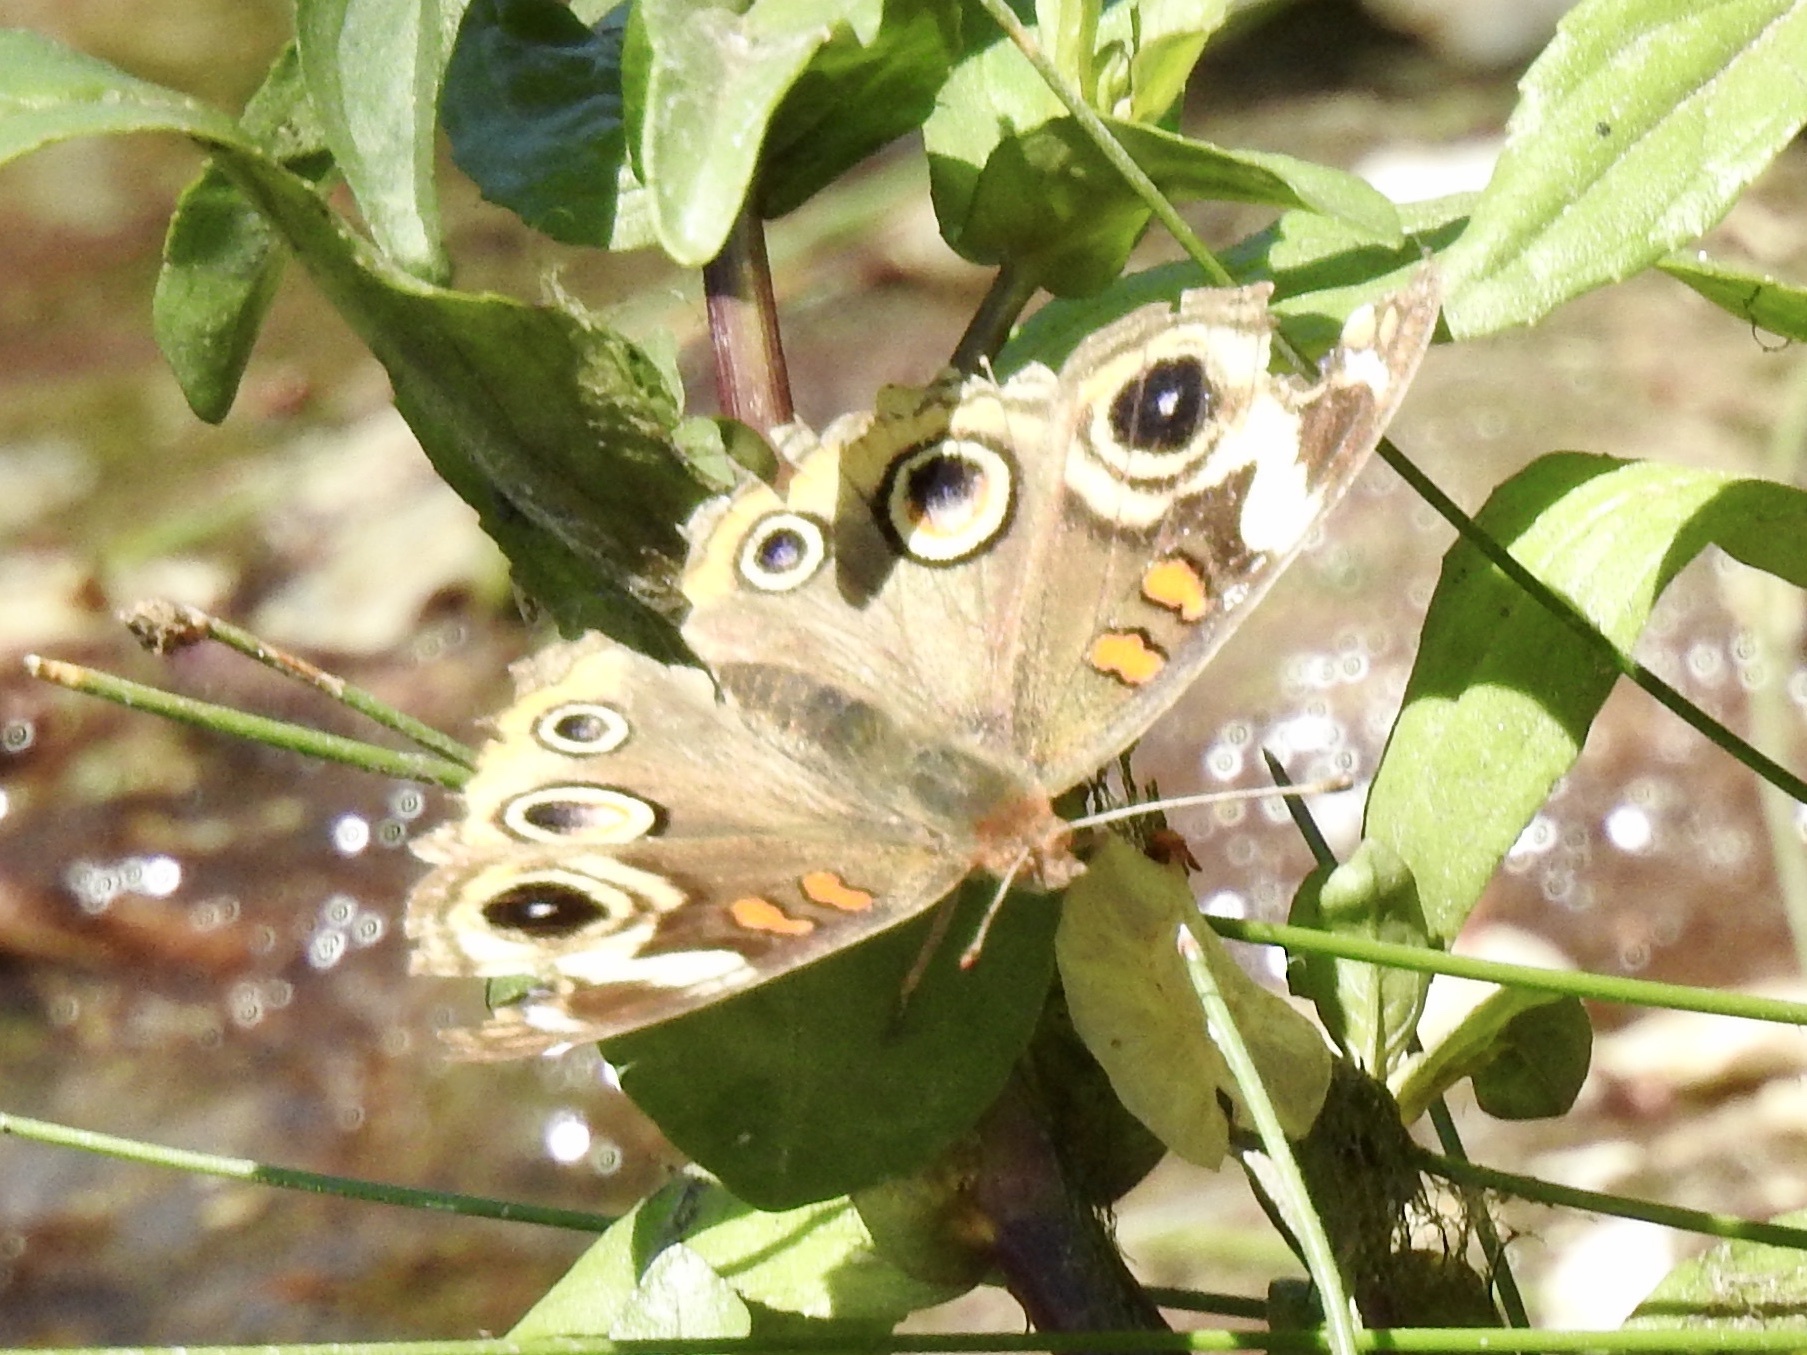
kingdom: Animalia
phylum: Arthropoda
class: Insecta
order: Lepidoptera
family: Nymphalidae
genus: Junonia
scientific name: Junonia grisea
